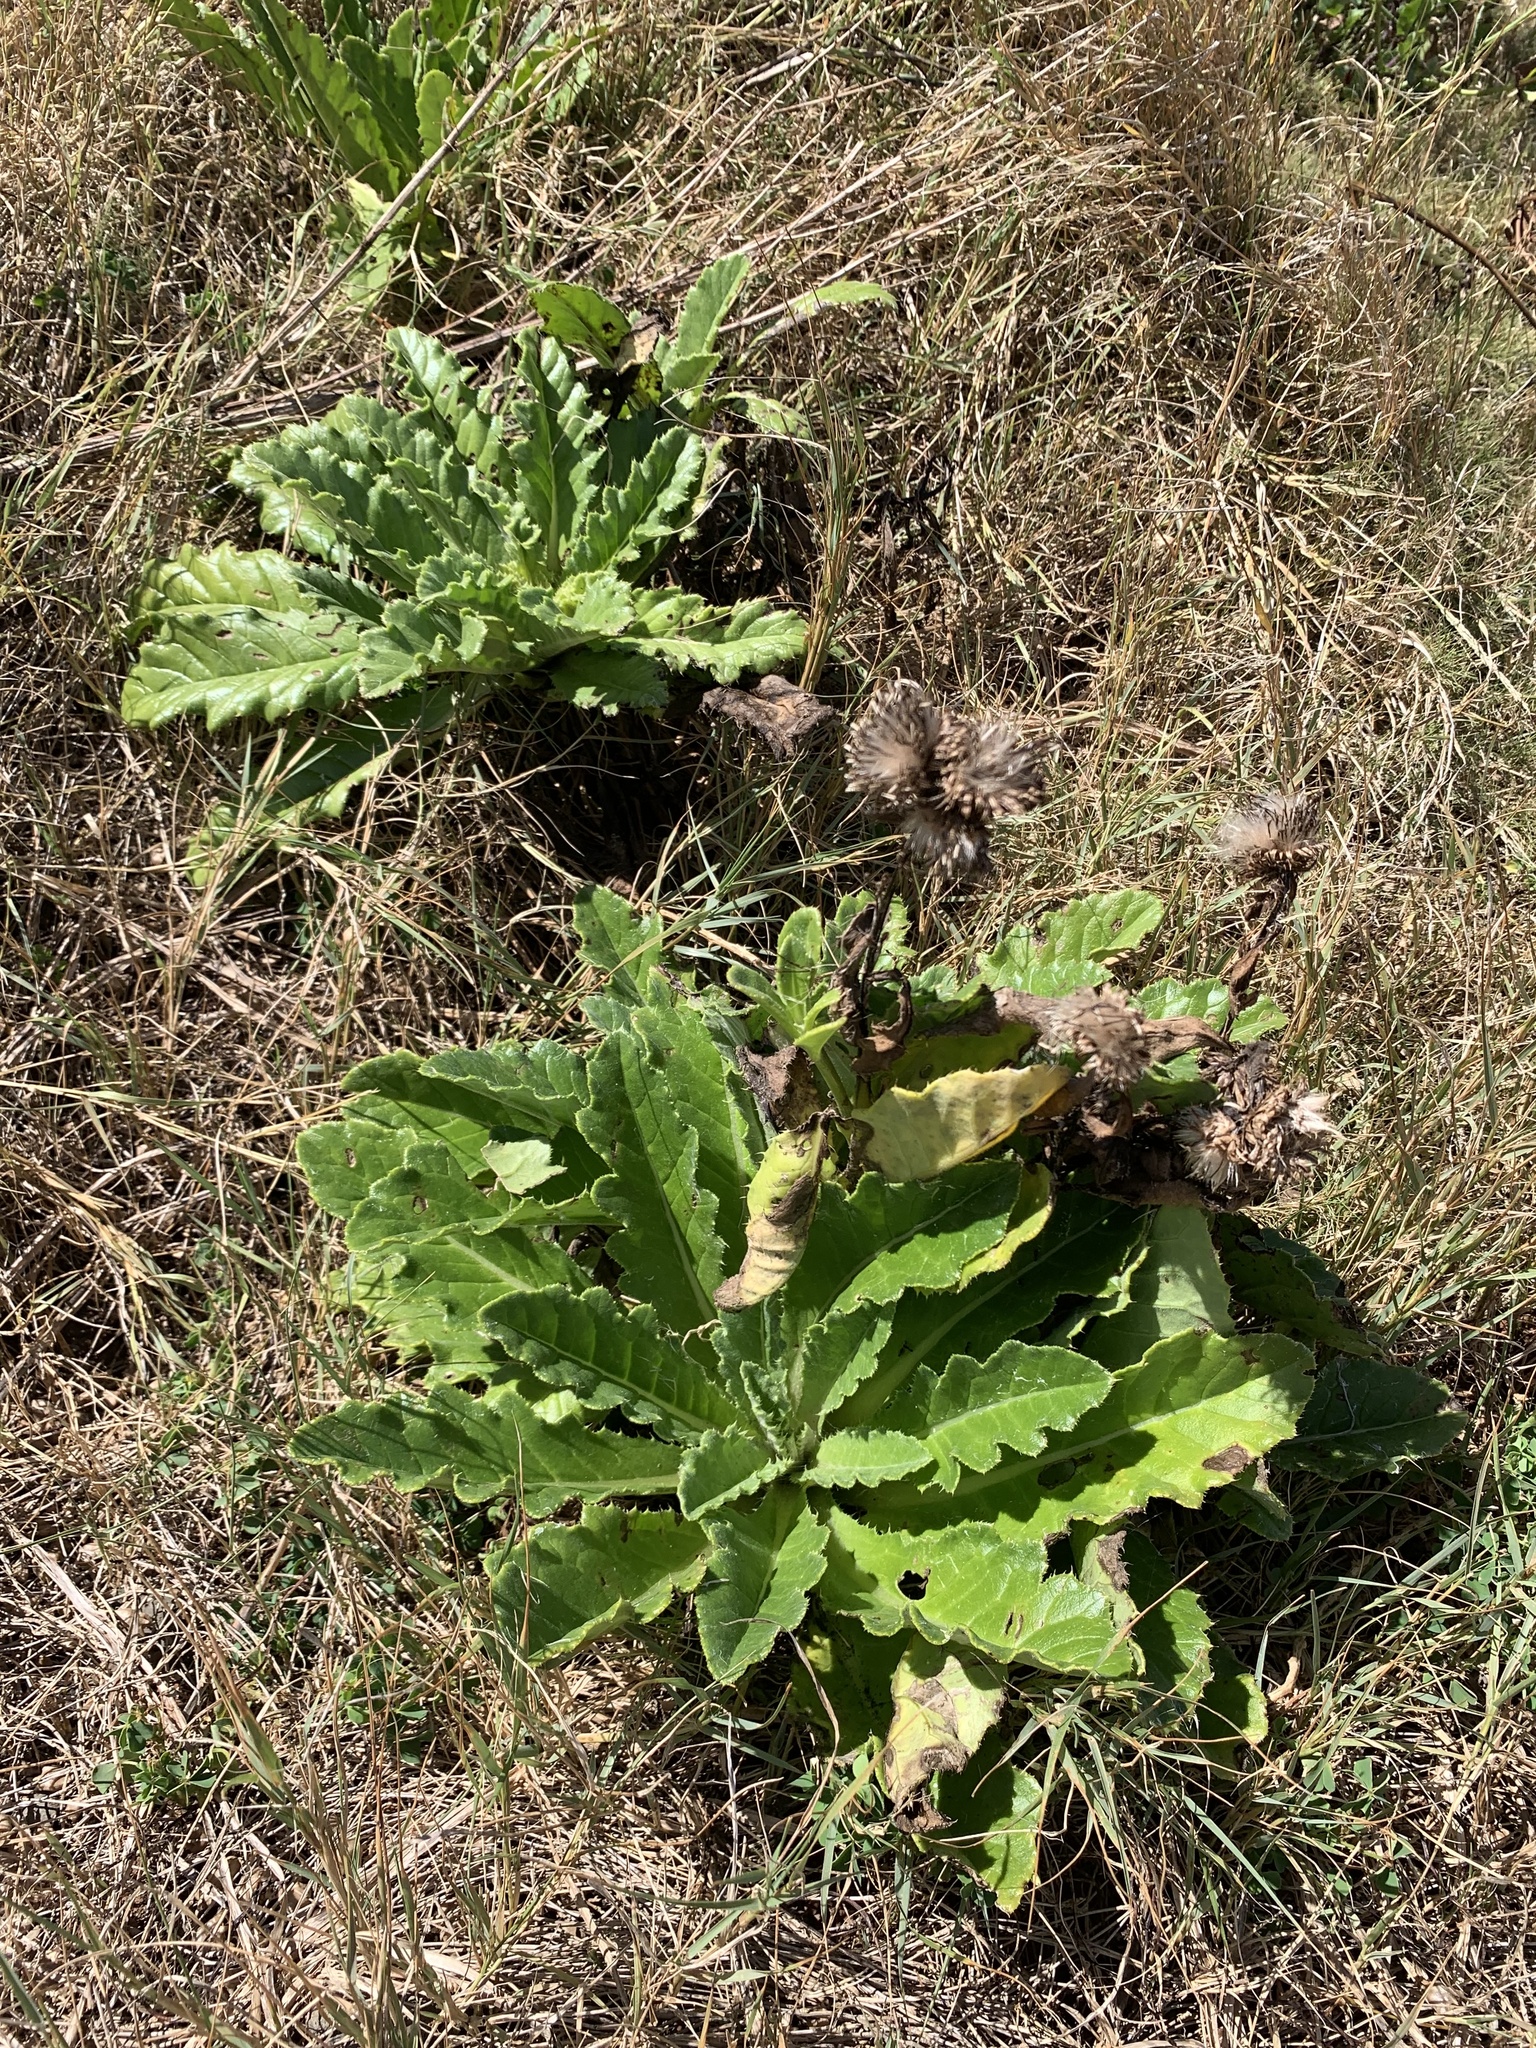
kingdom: Plantae
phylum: Tracheophyta
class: Magnoliopsida
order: Asterales
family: Asteraceae
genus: Cirsium
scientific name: Cirsium boninense
